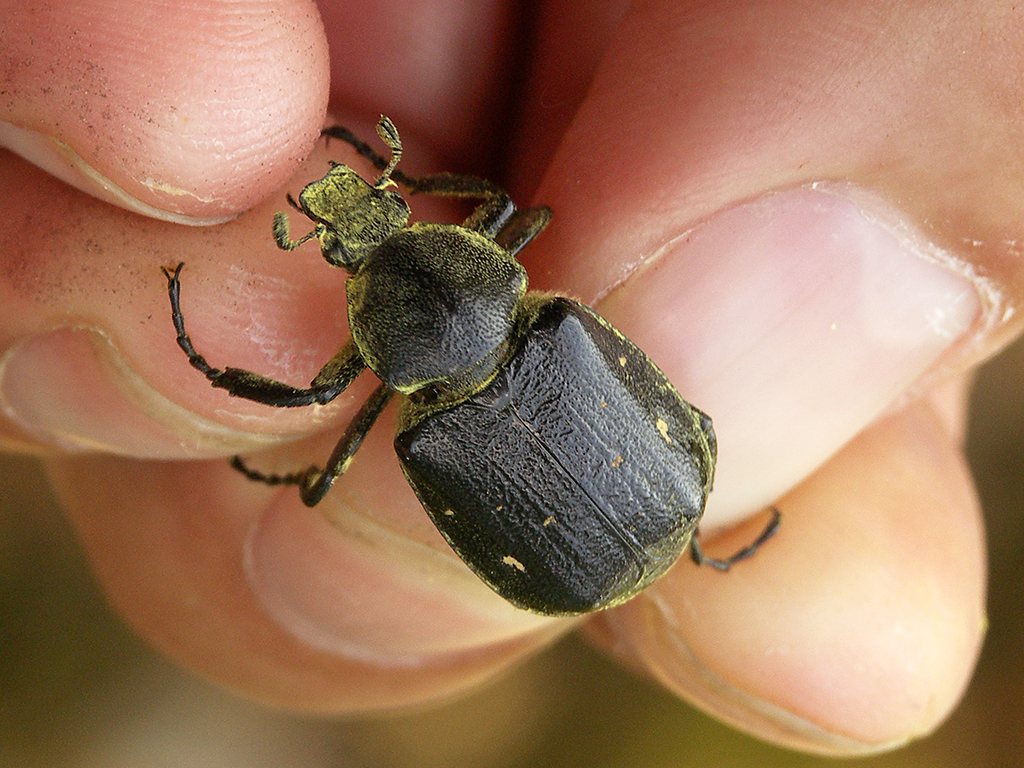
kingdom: Animalia
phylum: Arthropoda
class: Insecta
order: Coleoptera
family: Scarabaeidae
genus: Gnorimus
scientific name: Gnorimus variabilis
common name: Variable chafer
